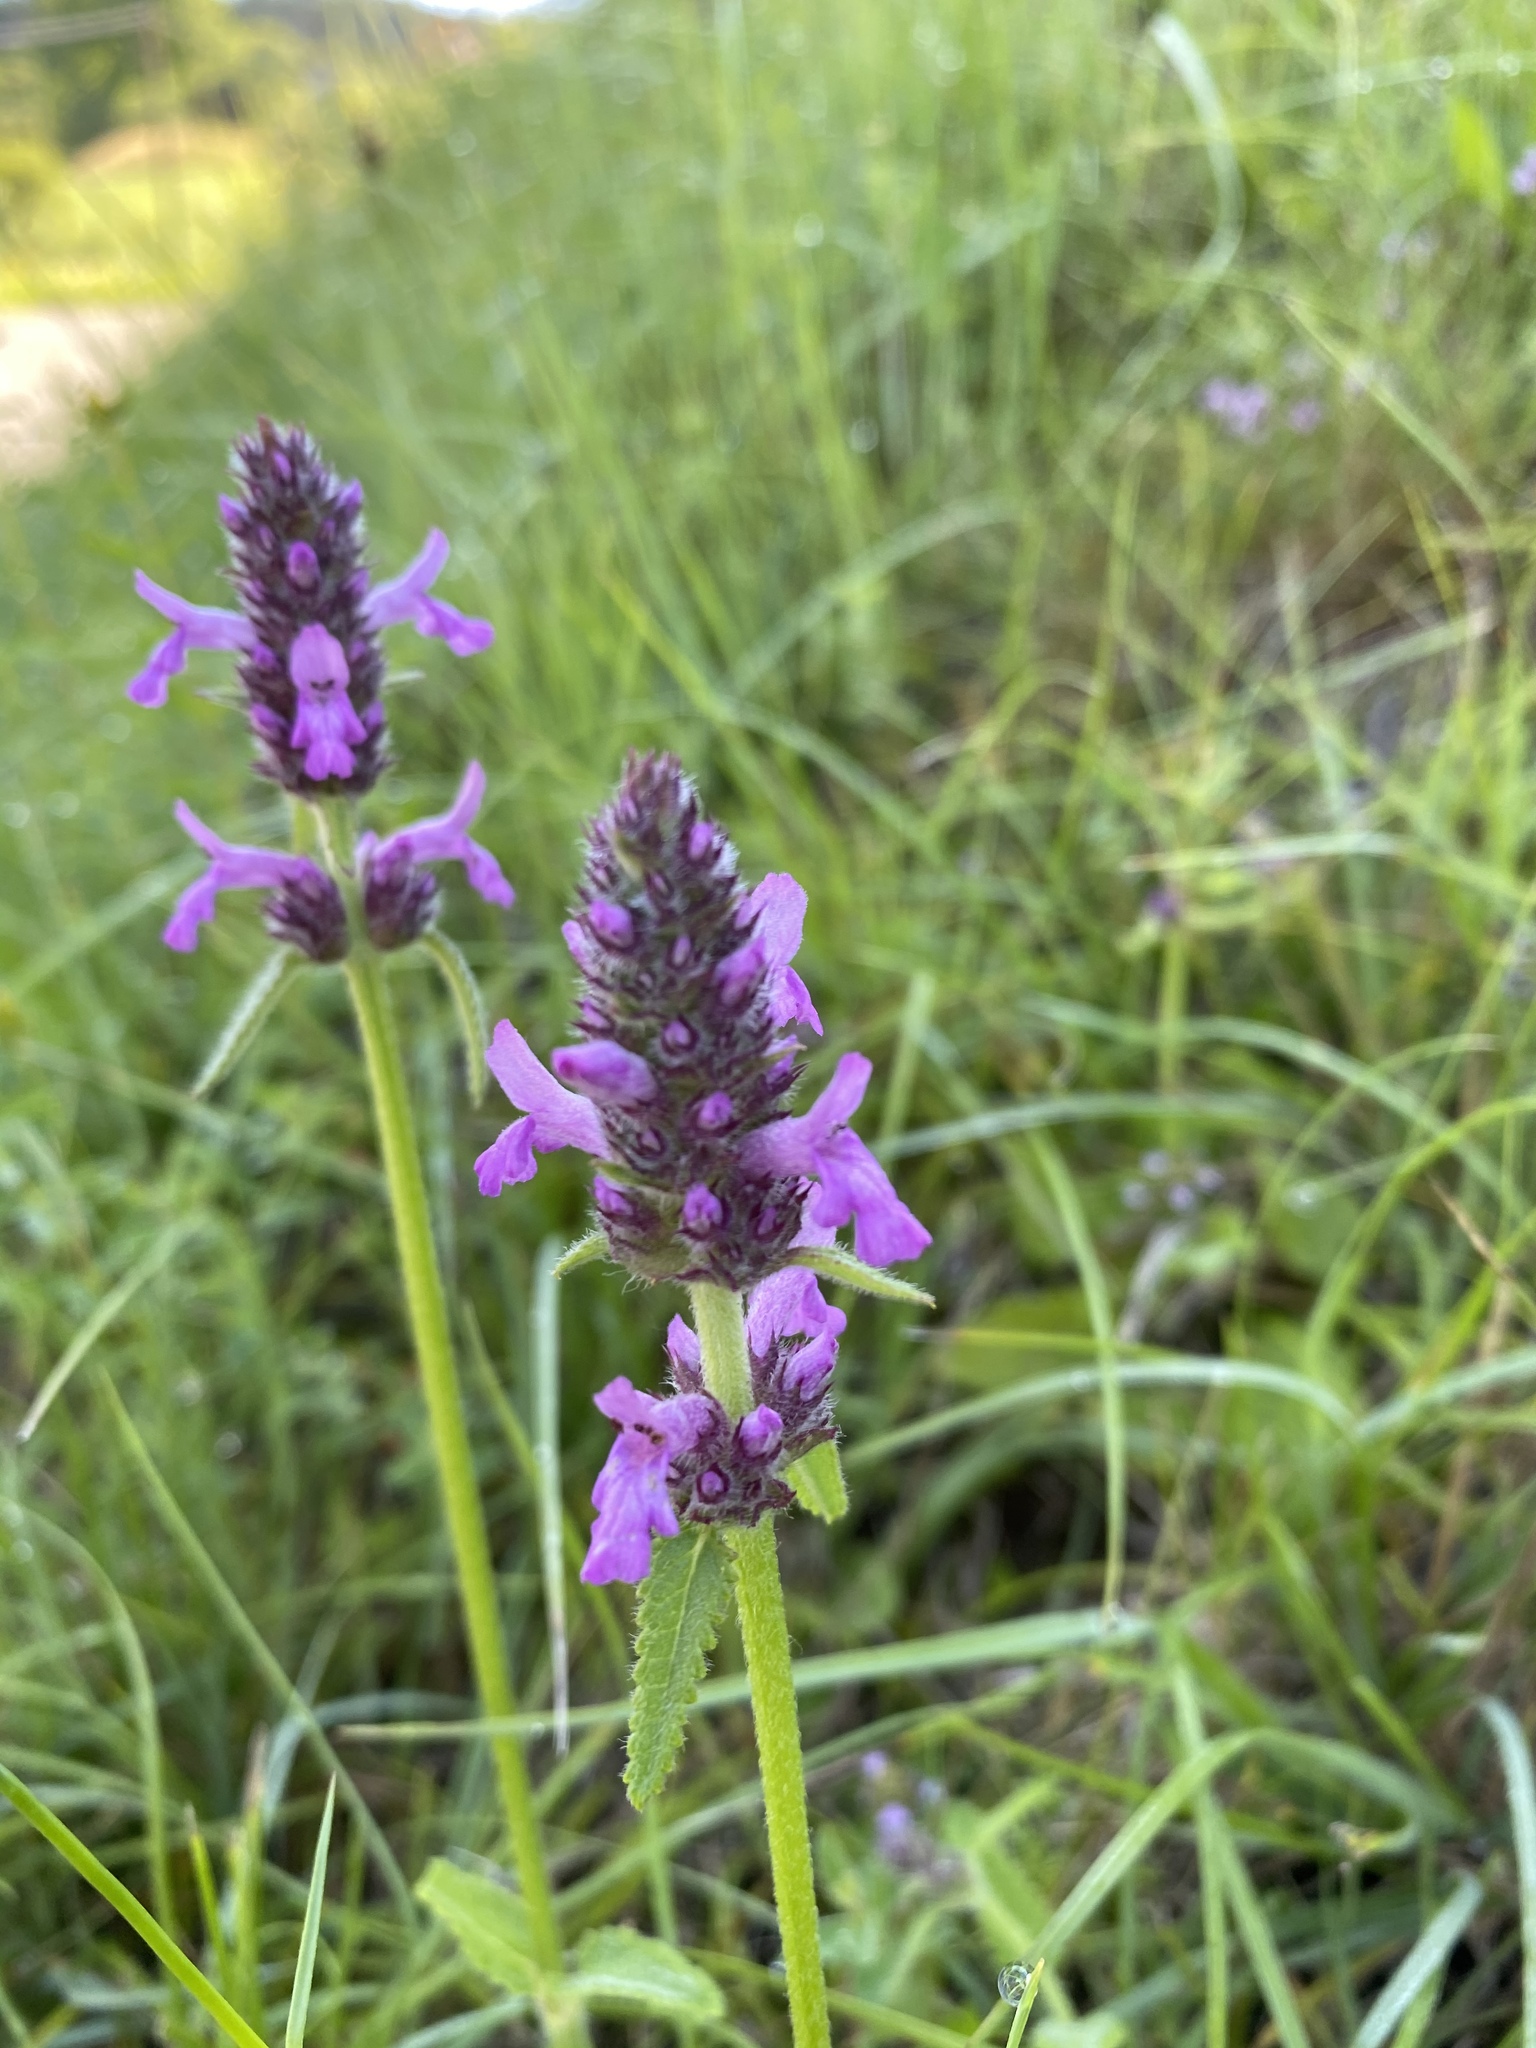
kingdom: Plantae
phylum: Tracheophyta
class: Magnoliopsida
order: Lamiales
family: Lamiaceae
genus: Betonica
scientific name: Betonica officinalis
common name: Bishop's-wort
